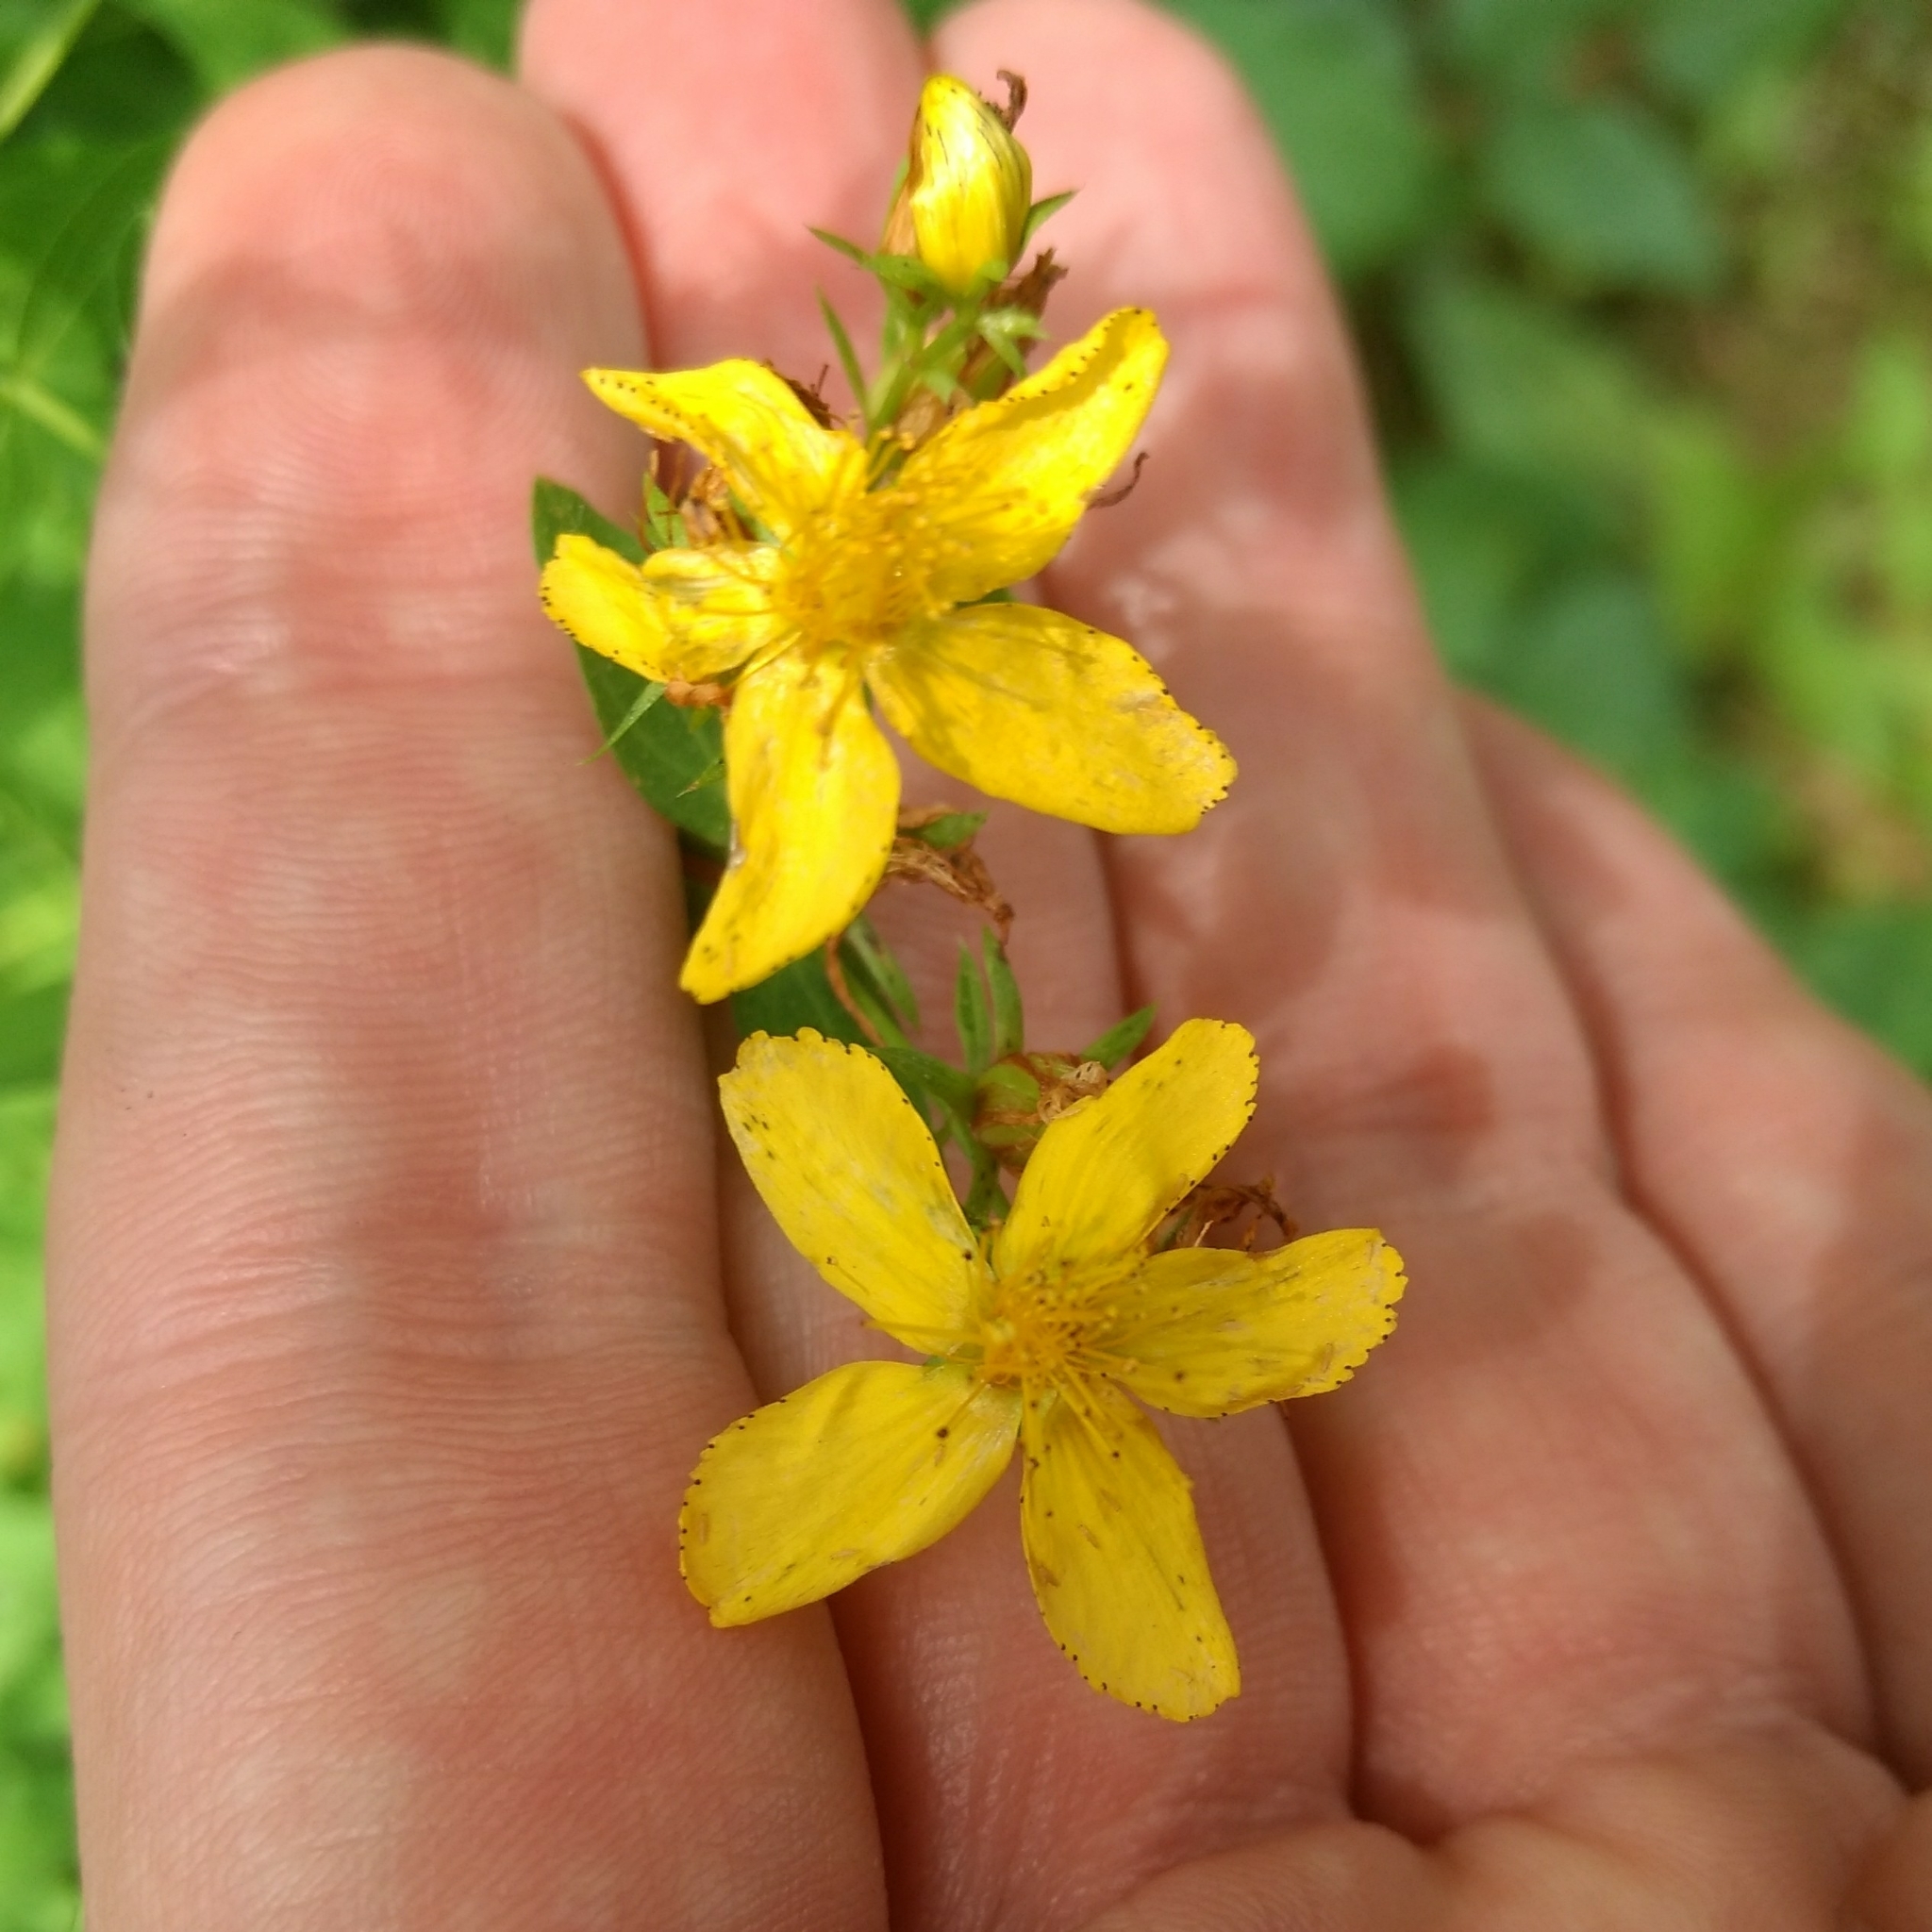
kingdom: Plantae
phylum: Tracheophyta
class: Magnoliopsida
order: Malpighiales
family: Hypericaceae
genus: Hypericum
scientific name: Hypericum perforatum
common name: Common st. johnswort
